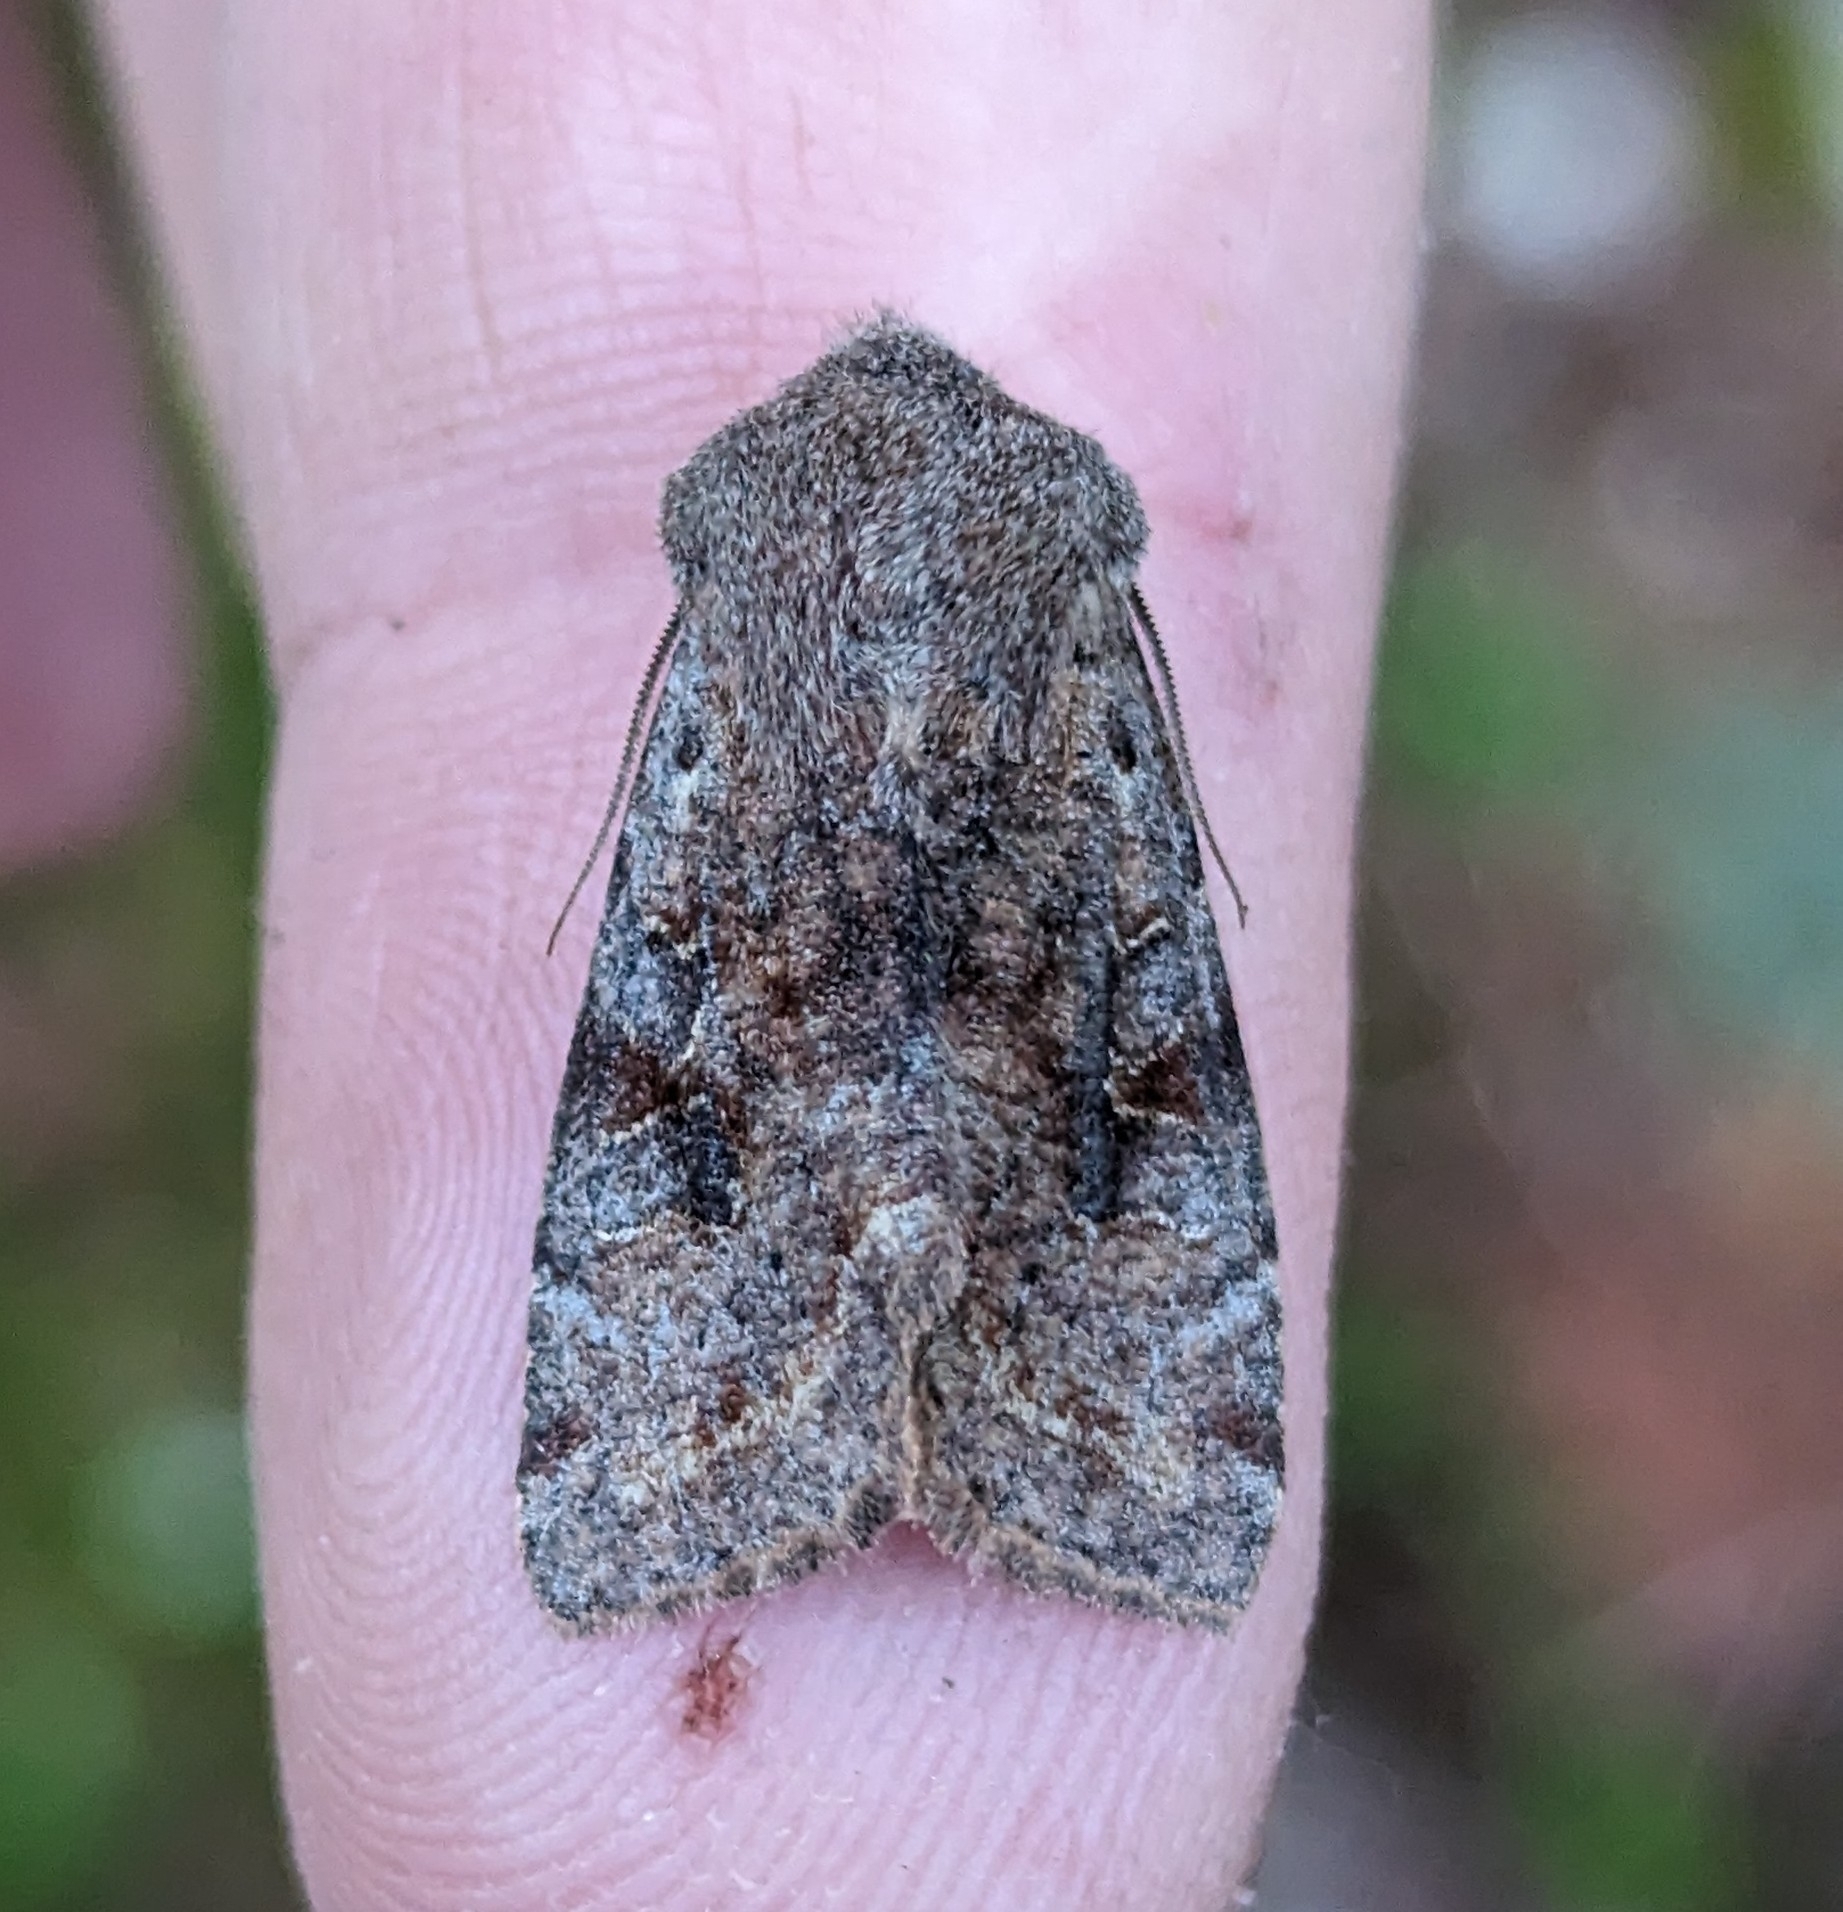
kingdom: Animalia
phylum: Arthropoda
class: Insecta
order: Lepidoptera
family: Noctuidae
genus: Orthosia
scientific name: Orthosia hibisci
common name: Green fruitworm
